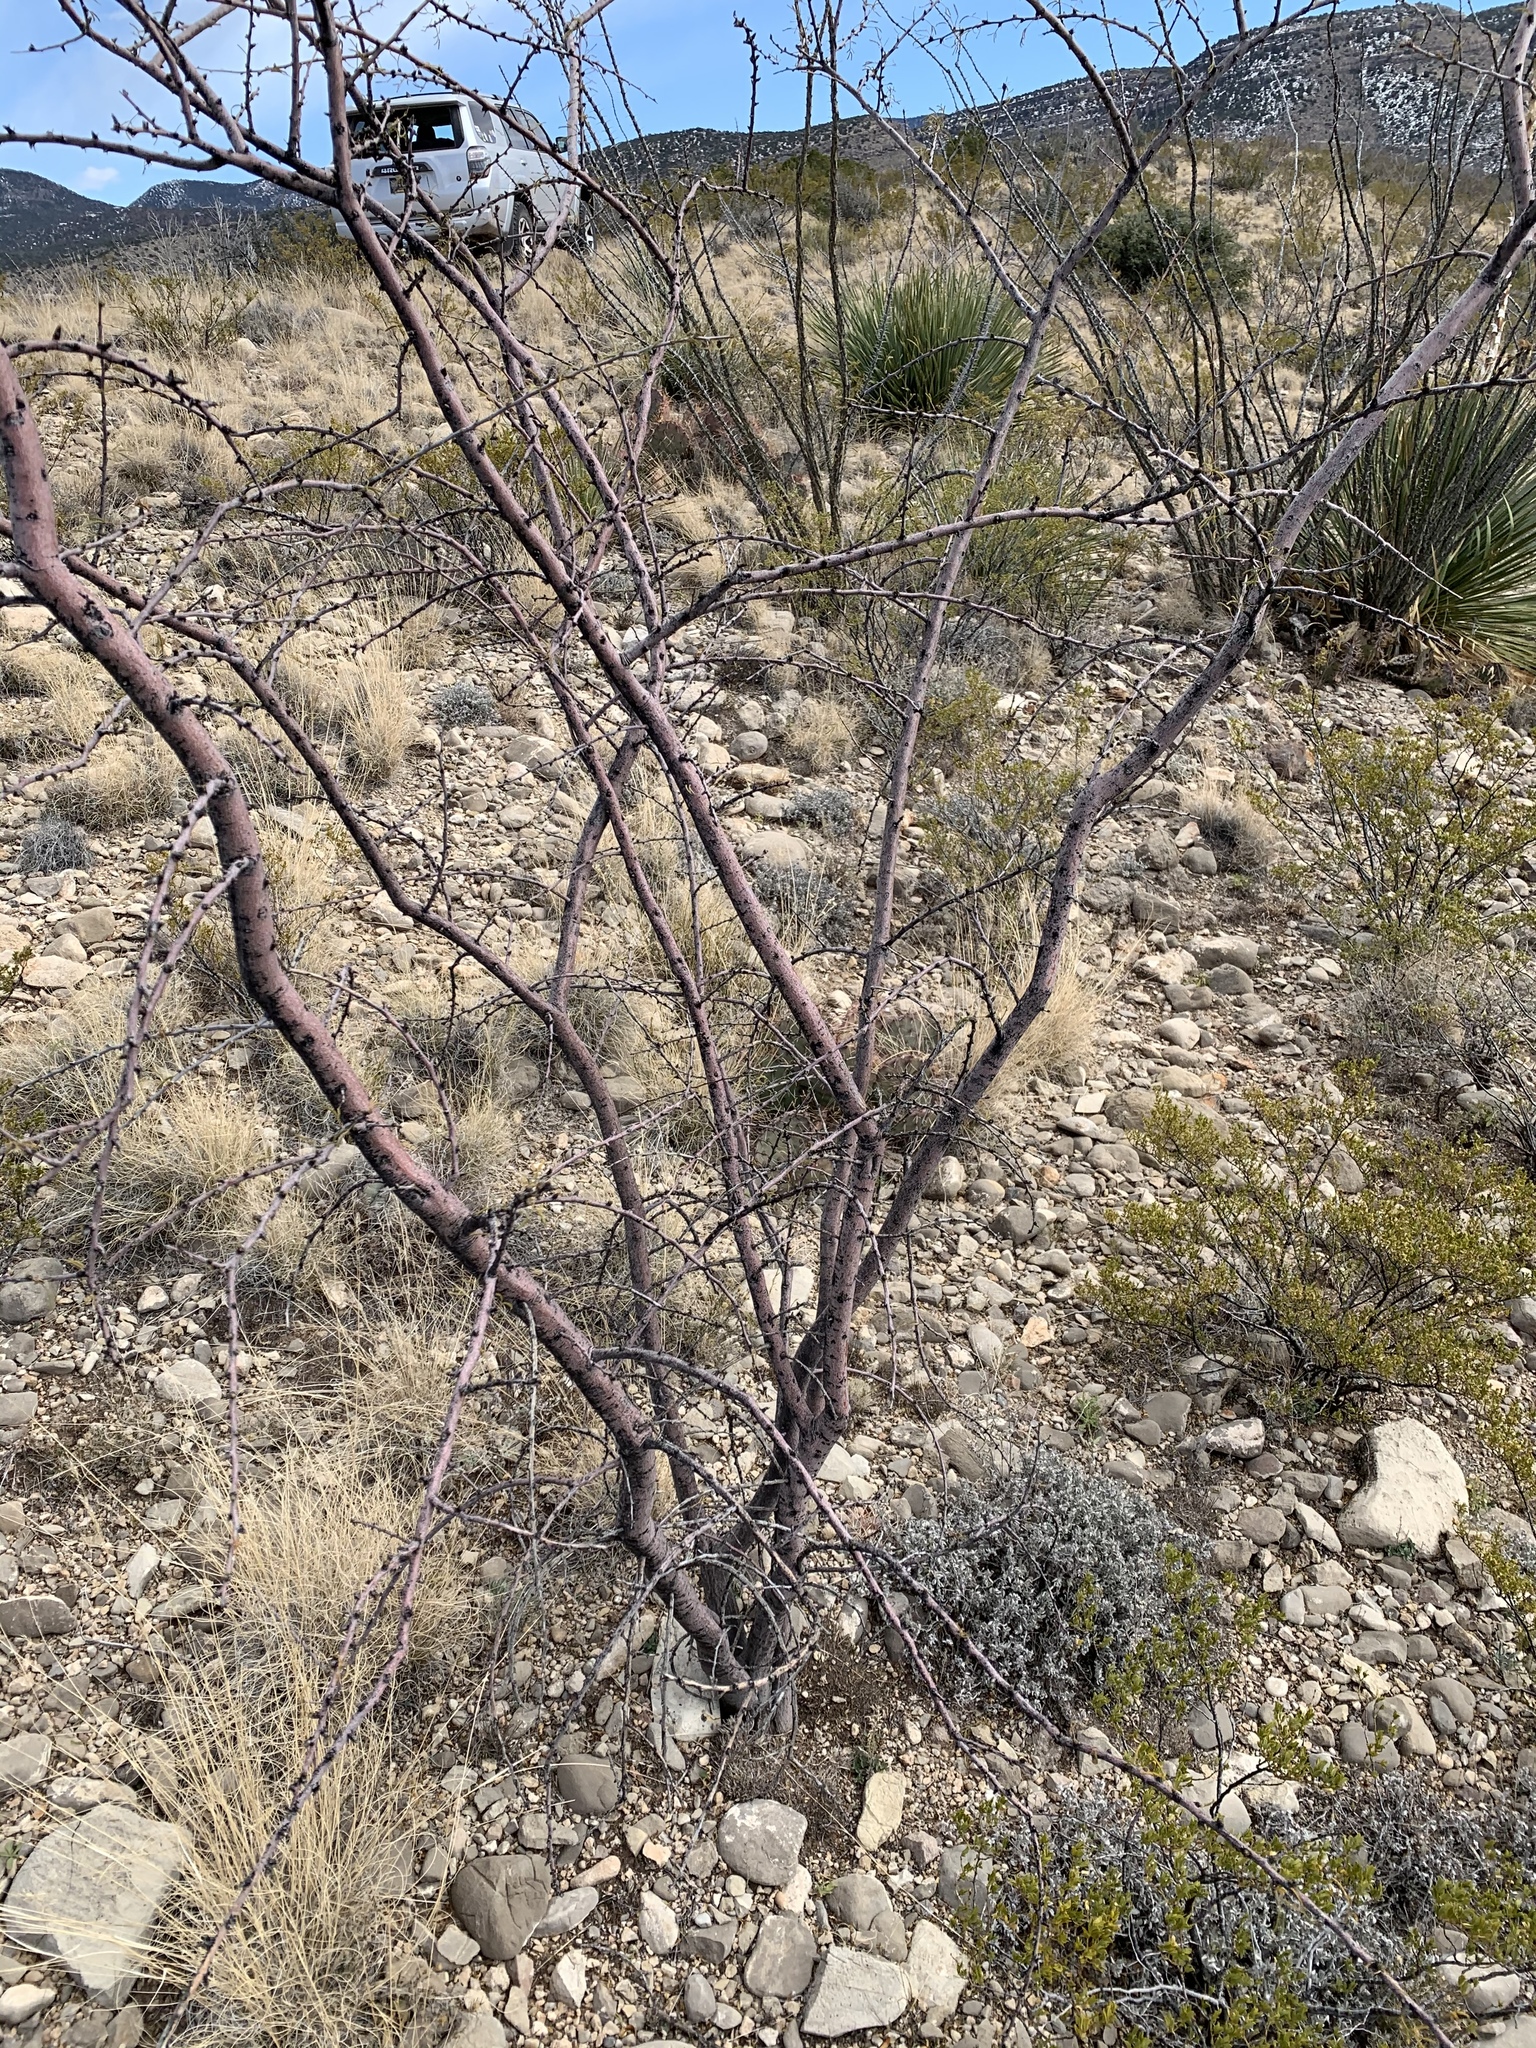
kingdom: Plantae
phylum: Tracheophyta
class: Magnoliopsida
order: Fabales
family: Fabaceae
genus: Vachellia
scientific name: Vachellia constricta
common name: Mescat acacia
